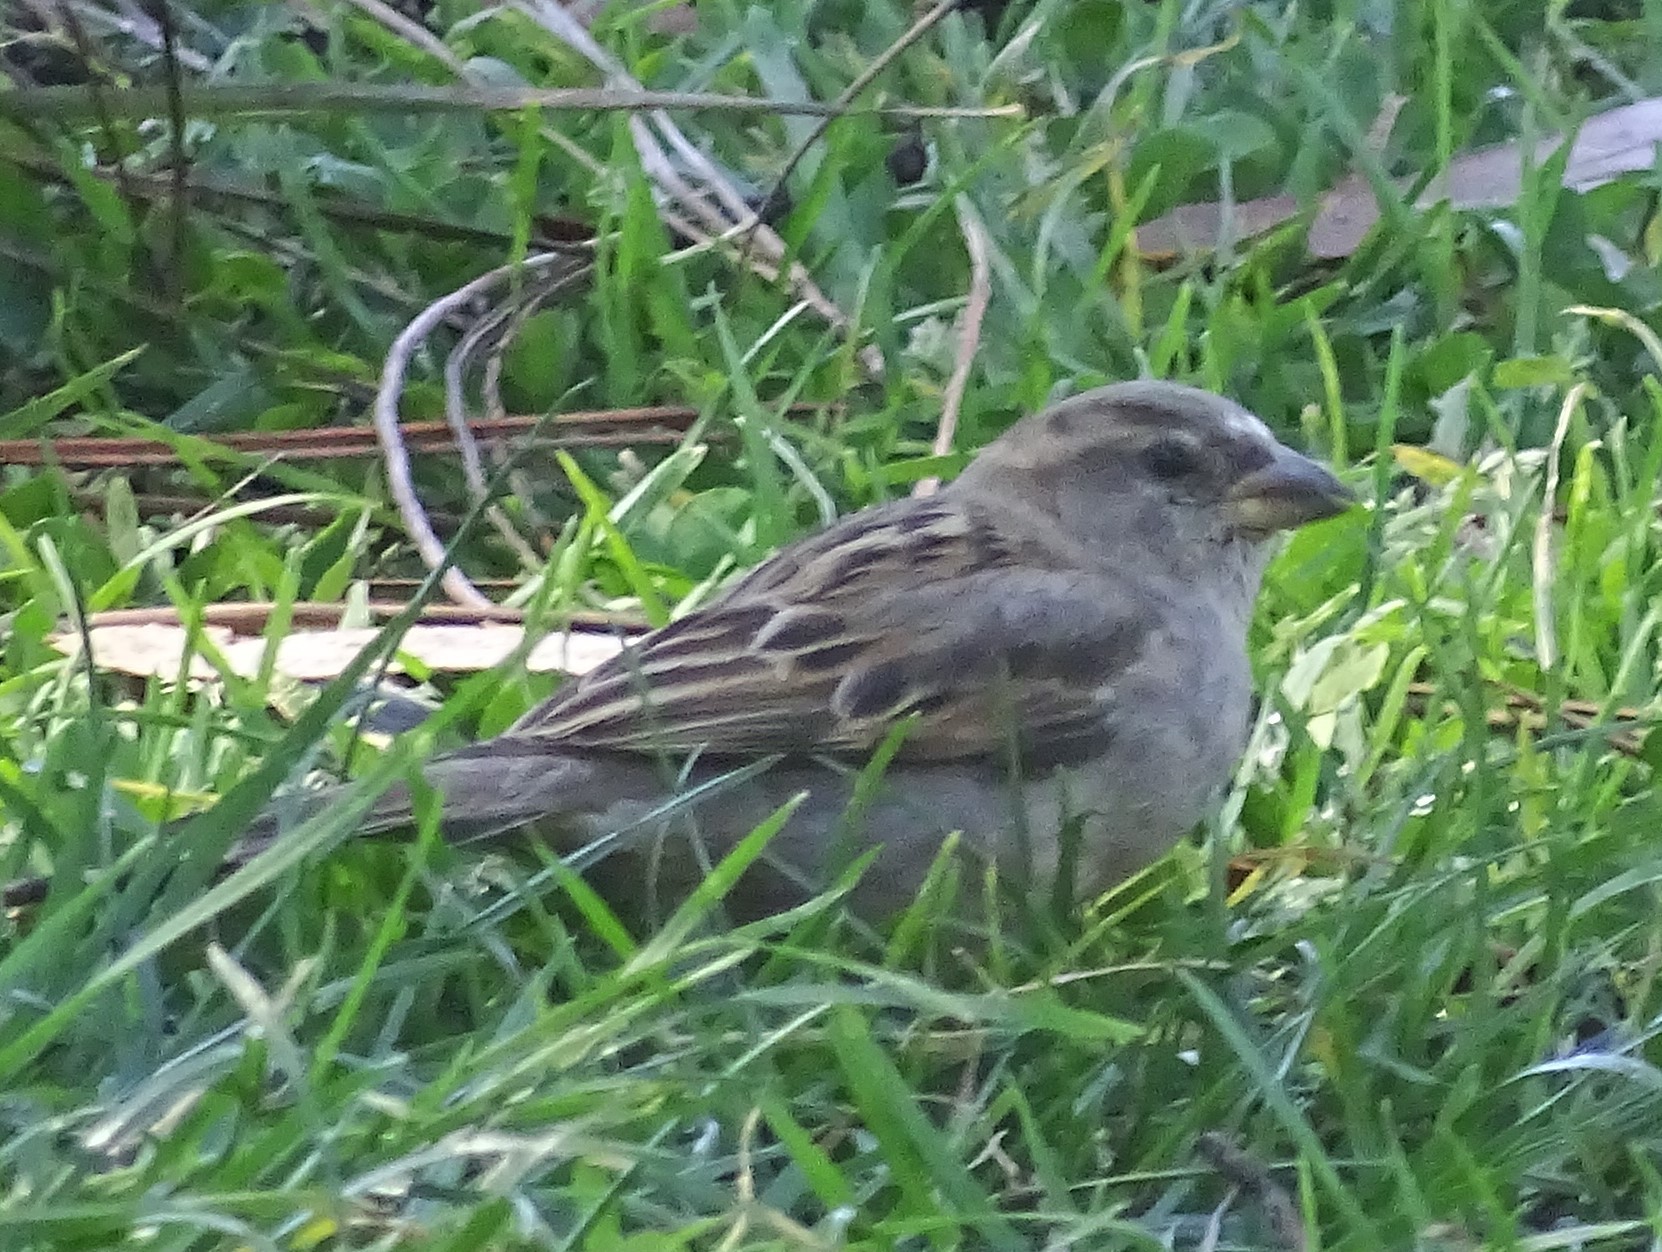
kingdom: Animalia
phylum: Chordata
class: Aves
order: Passeriformes
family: Passeridae
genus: Passer
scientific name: Passer domesticus
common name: House sparrow
